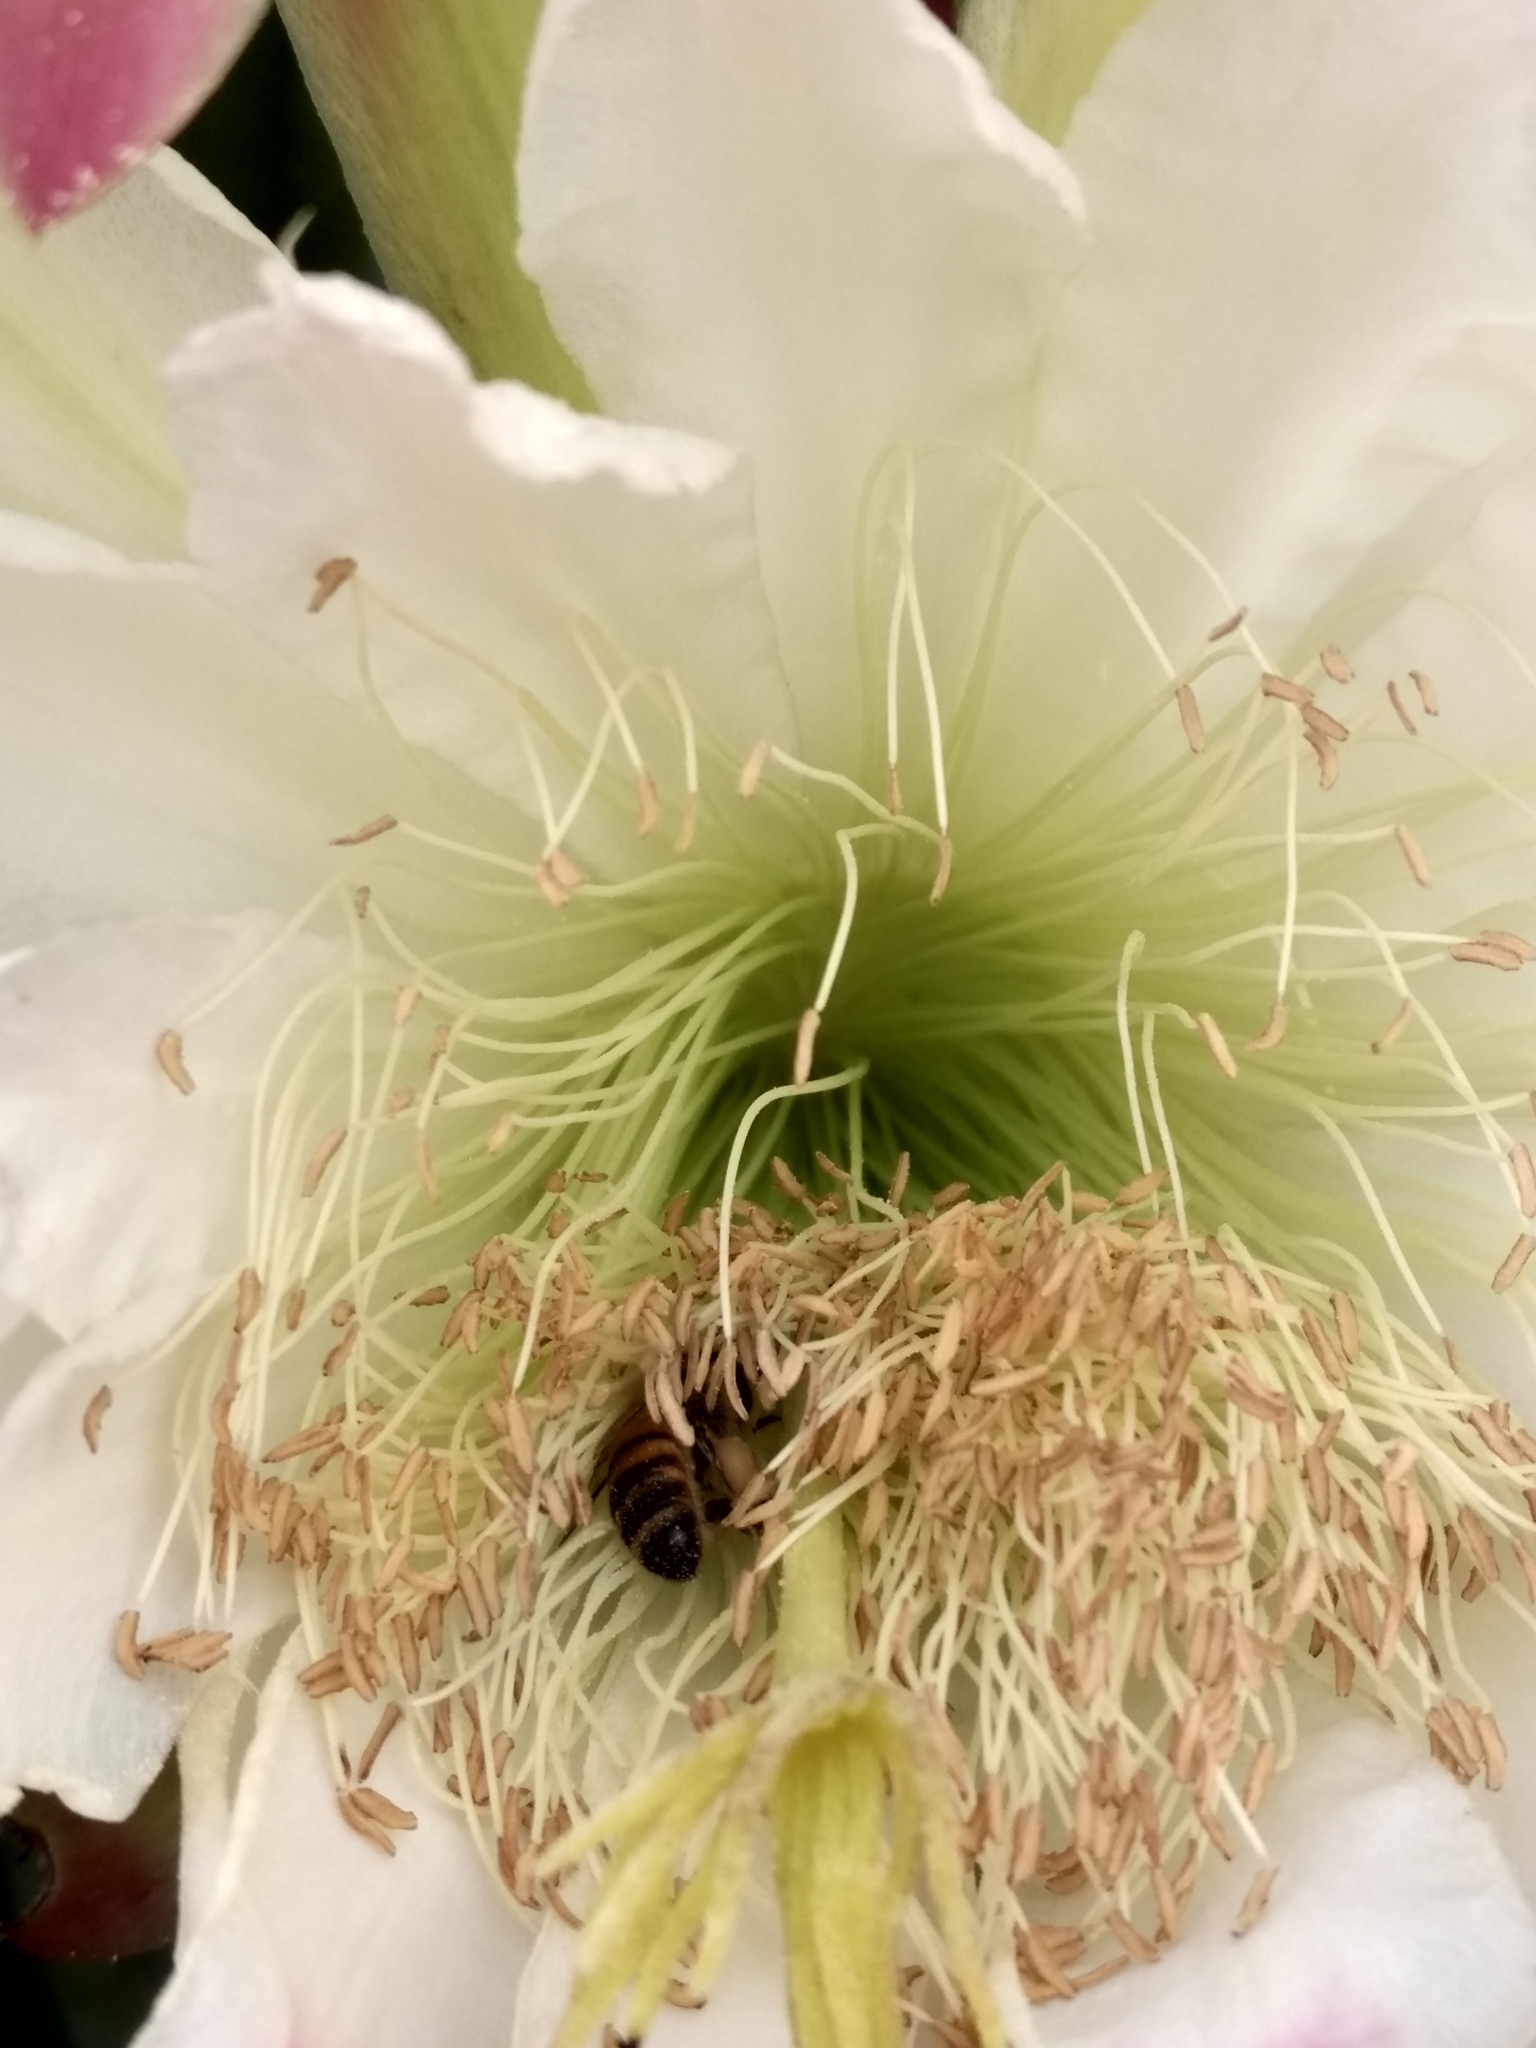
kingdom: Animalia
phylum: Arthropoda
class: Insecta
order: Hymenoptera
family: Apidae
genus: Apis
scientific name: Apis mellifera
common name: Honey bee
